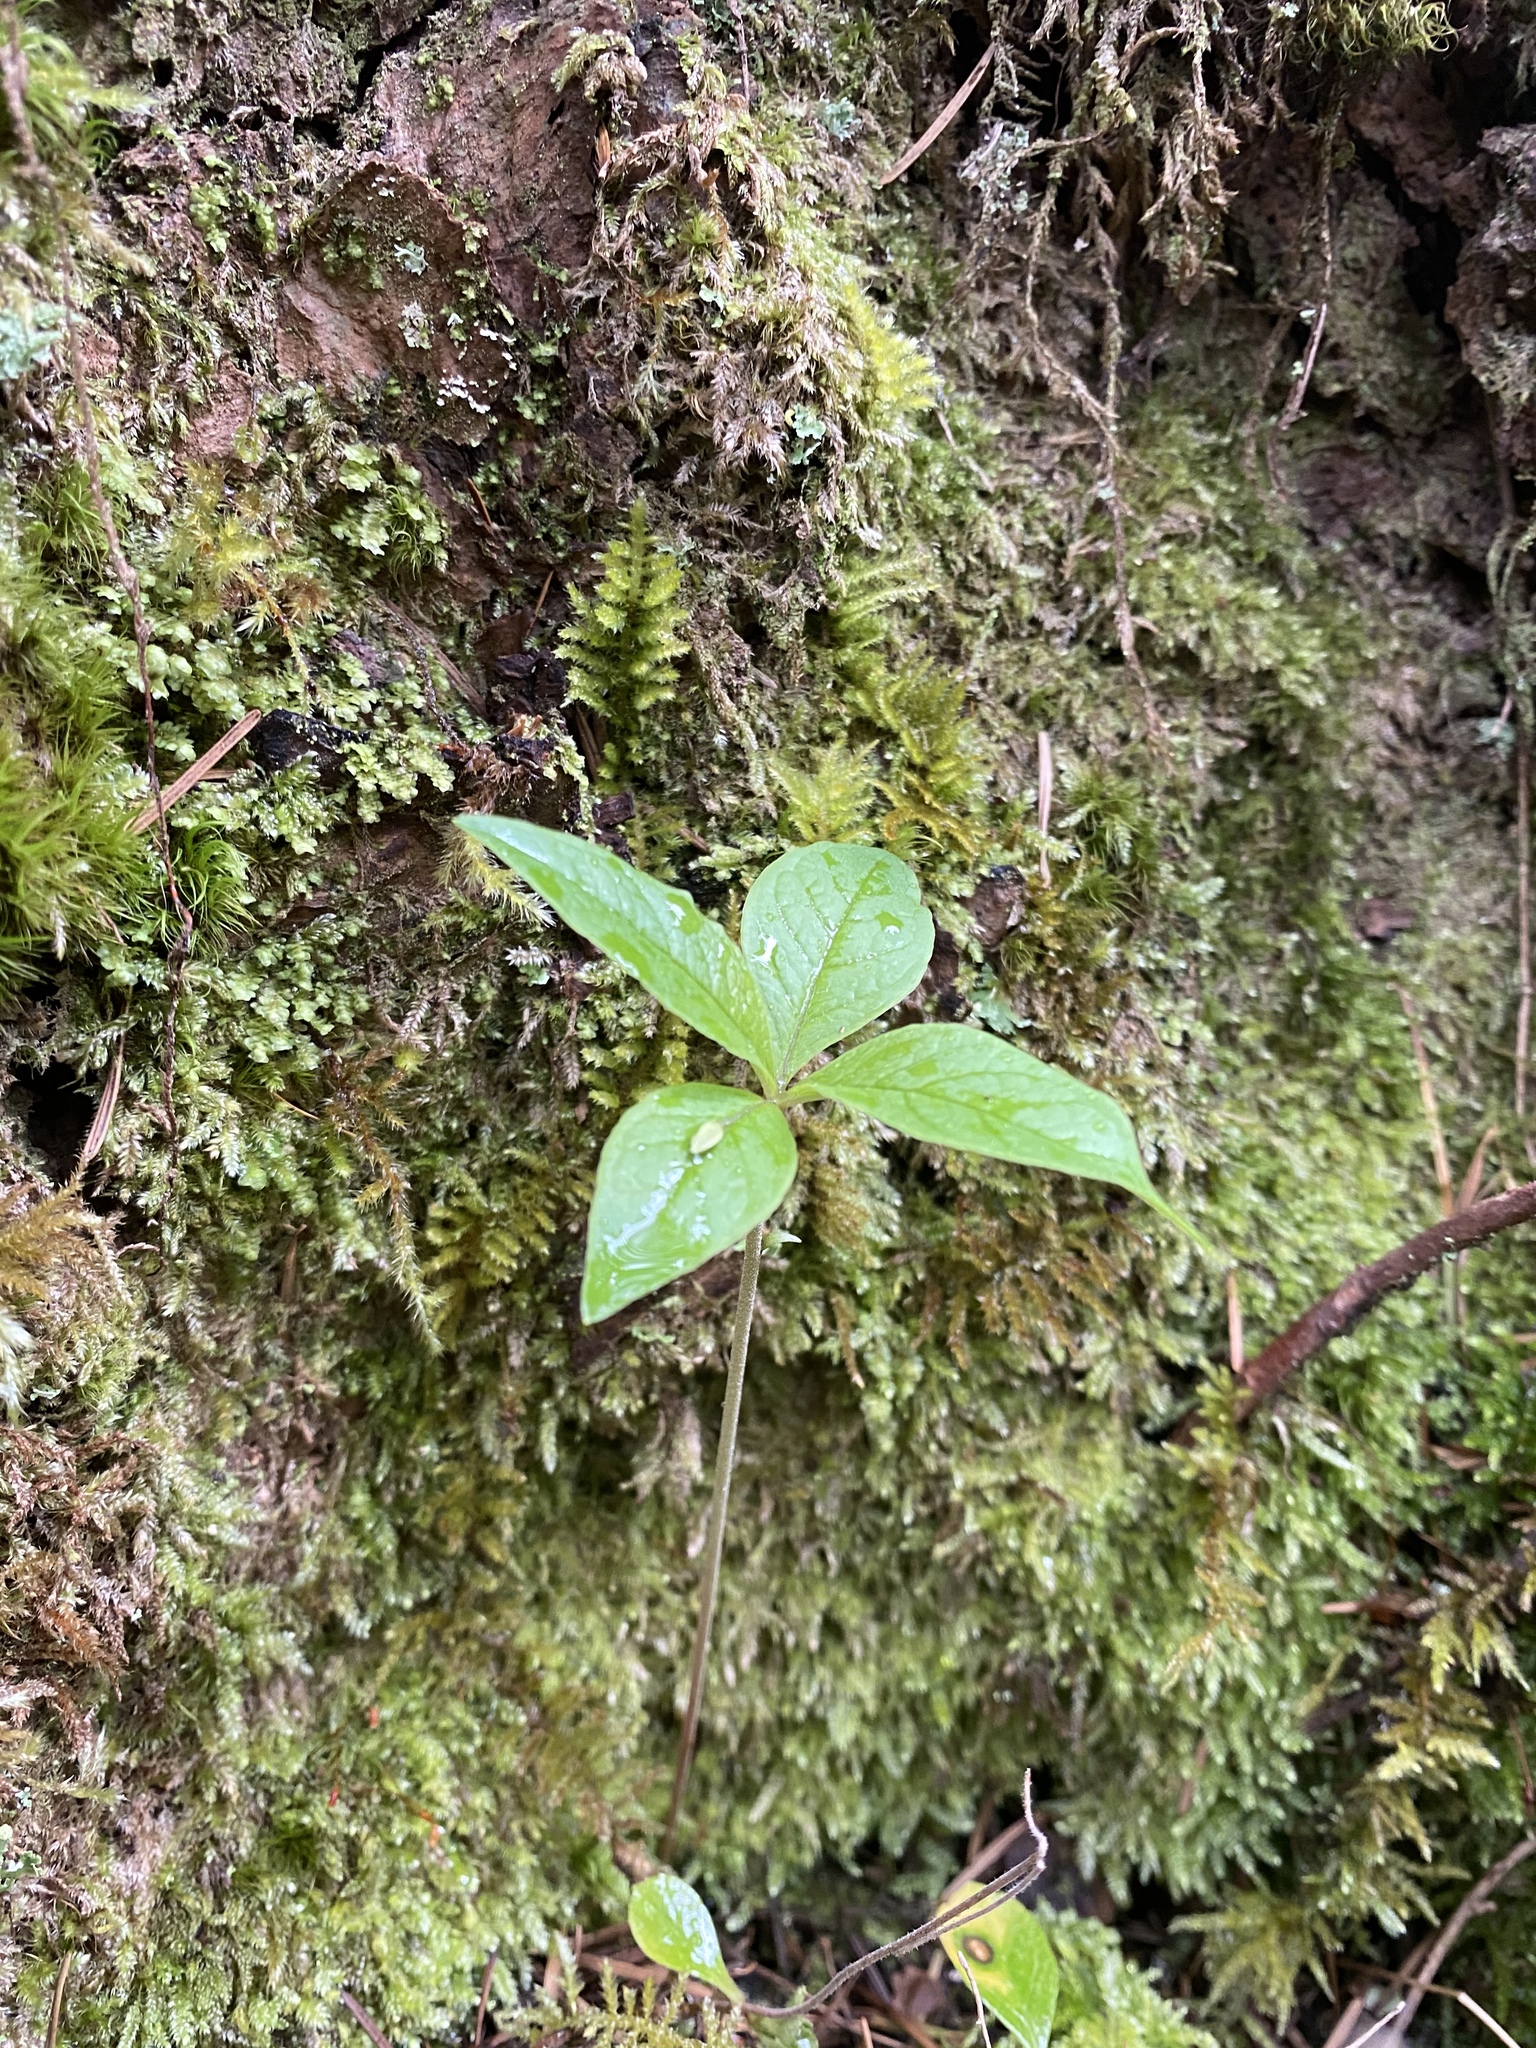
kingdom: Plantae
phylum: Tracheophyta
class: Magnoliopsida
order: Ericales
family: Primulaceae
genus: Lysimachia
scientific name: Lysimachia latifolia
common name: Pacific starflower
